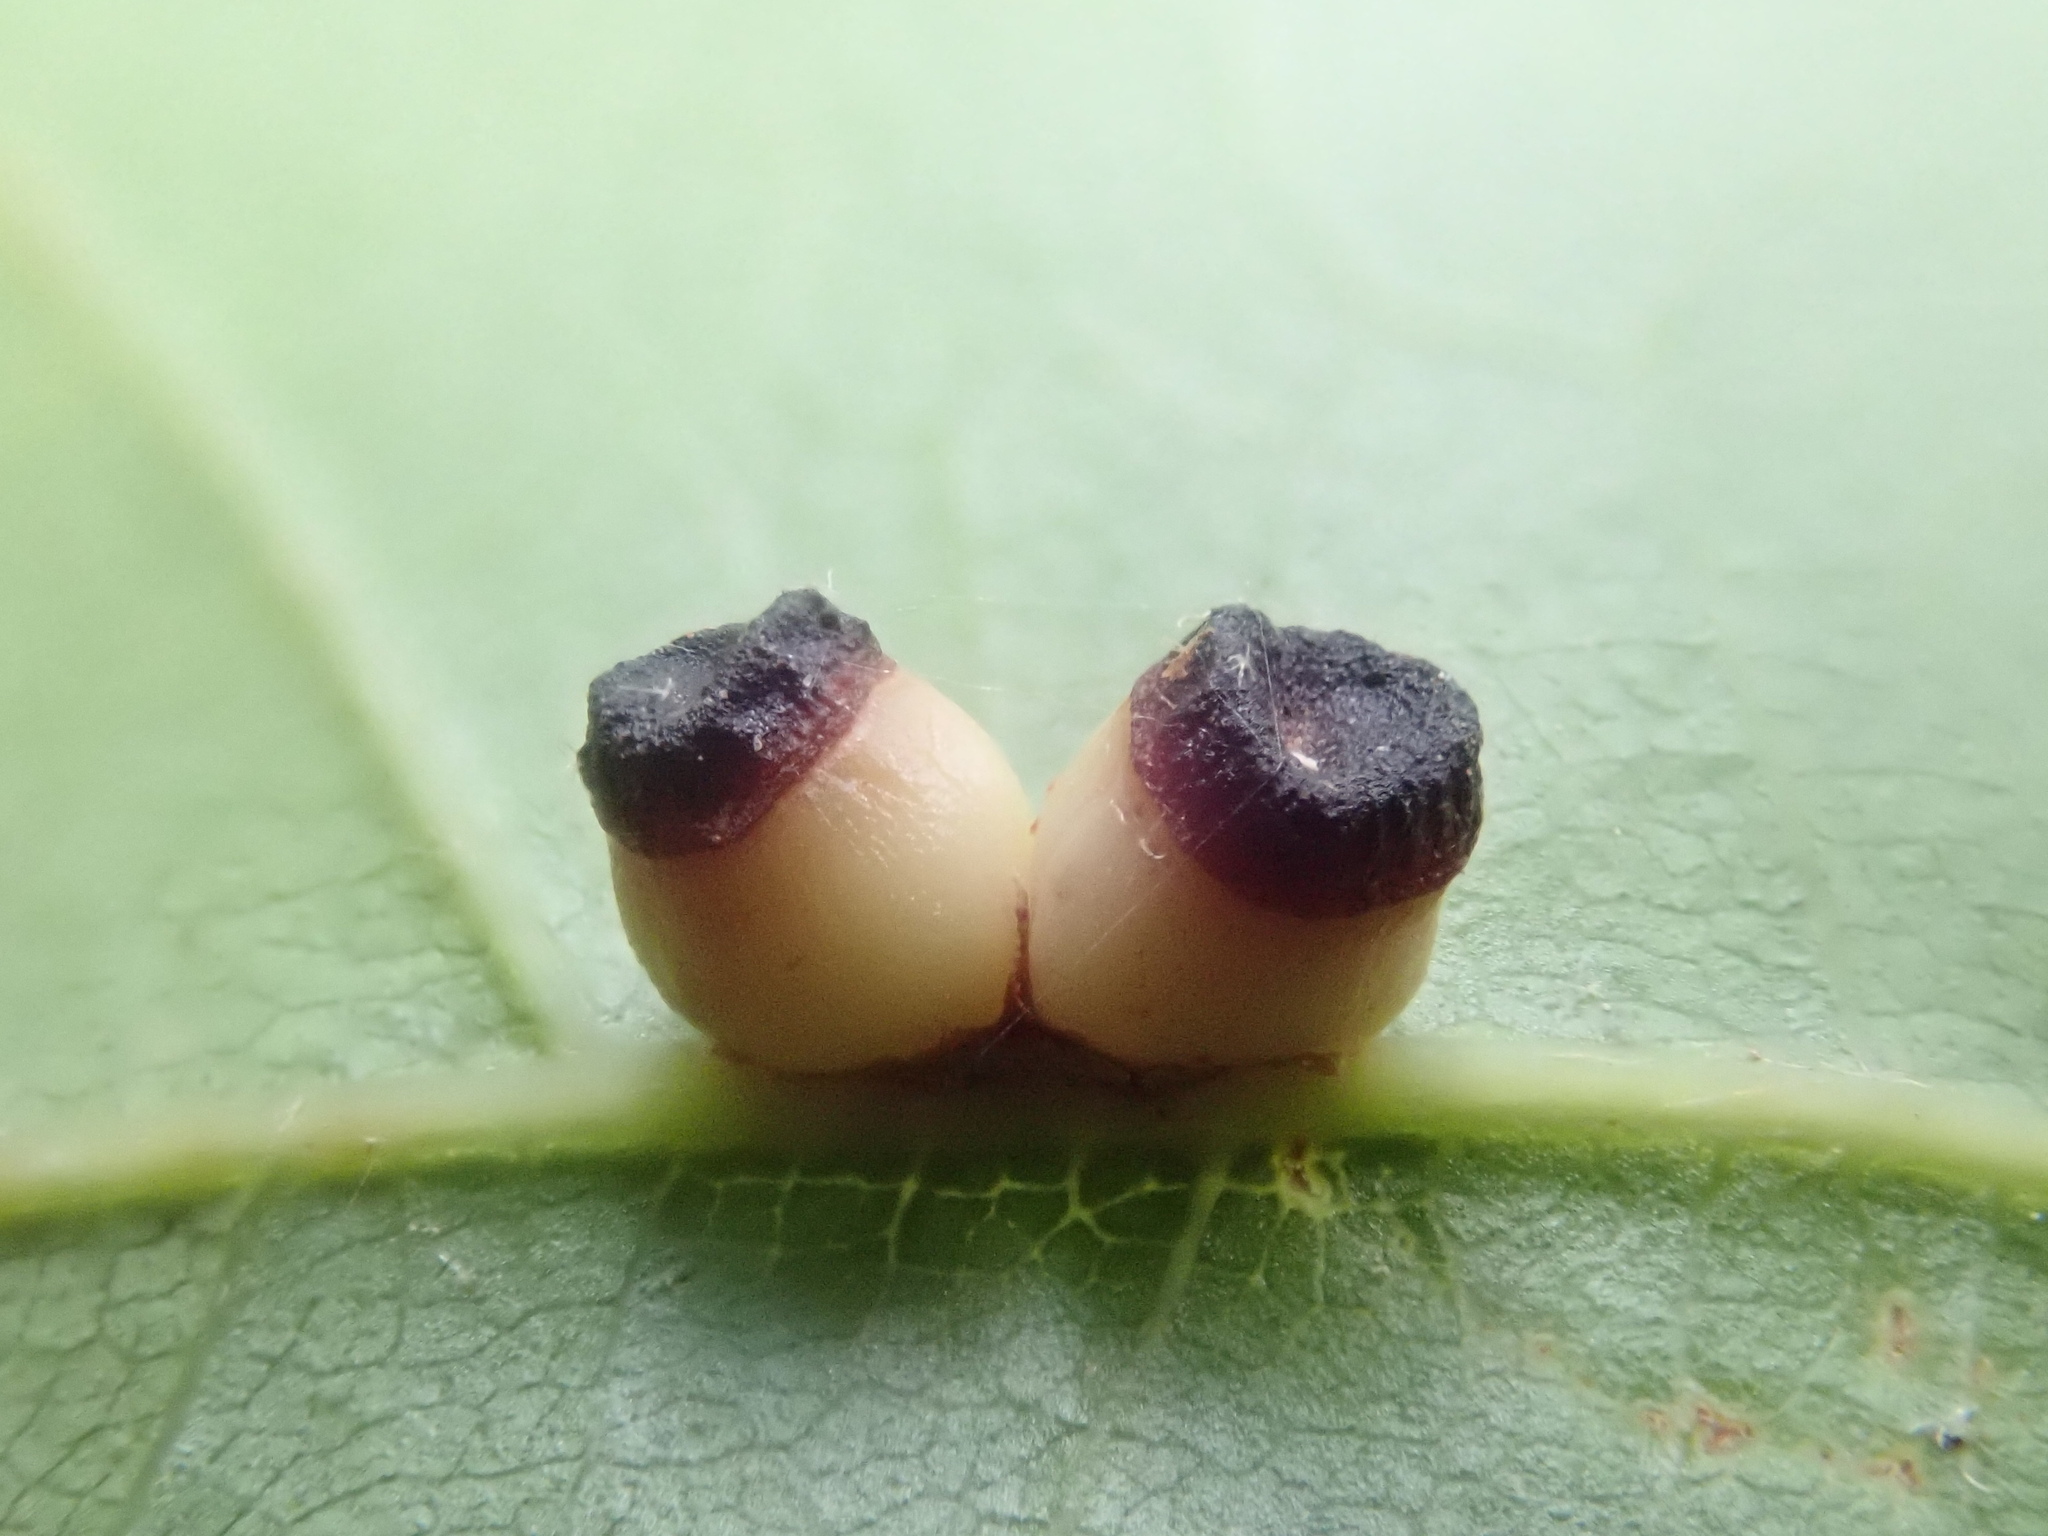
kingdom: Animalia
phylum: Arthropoda
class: Insecta
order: Hymenoptera
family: Cynipidae
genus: Kokkocynips
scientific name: Kokkocynips rileyi
